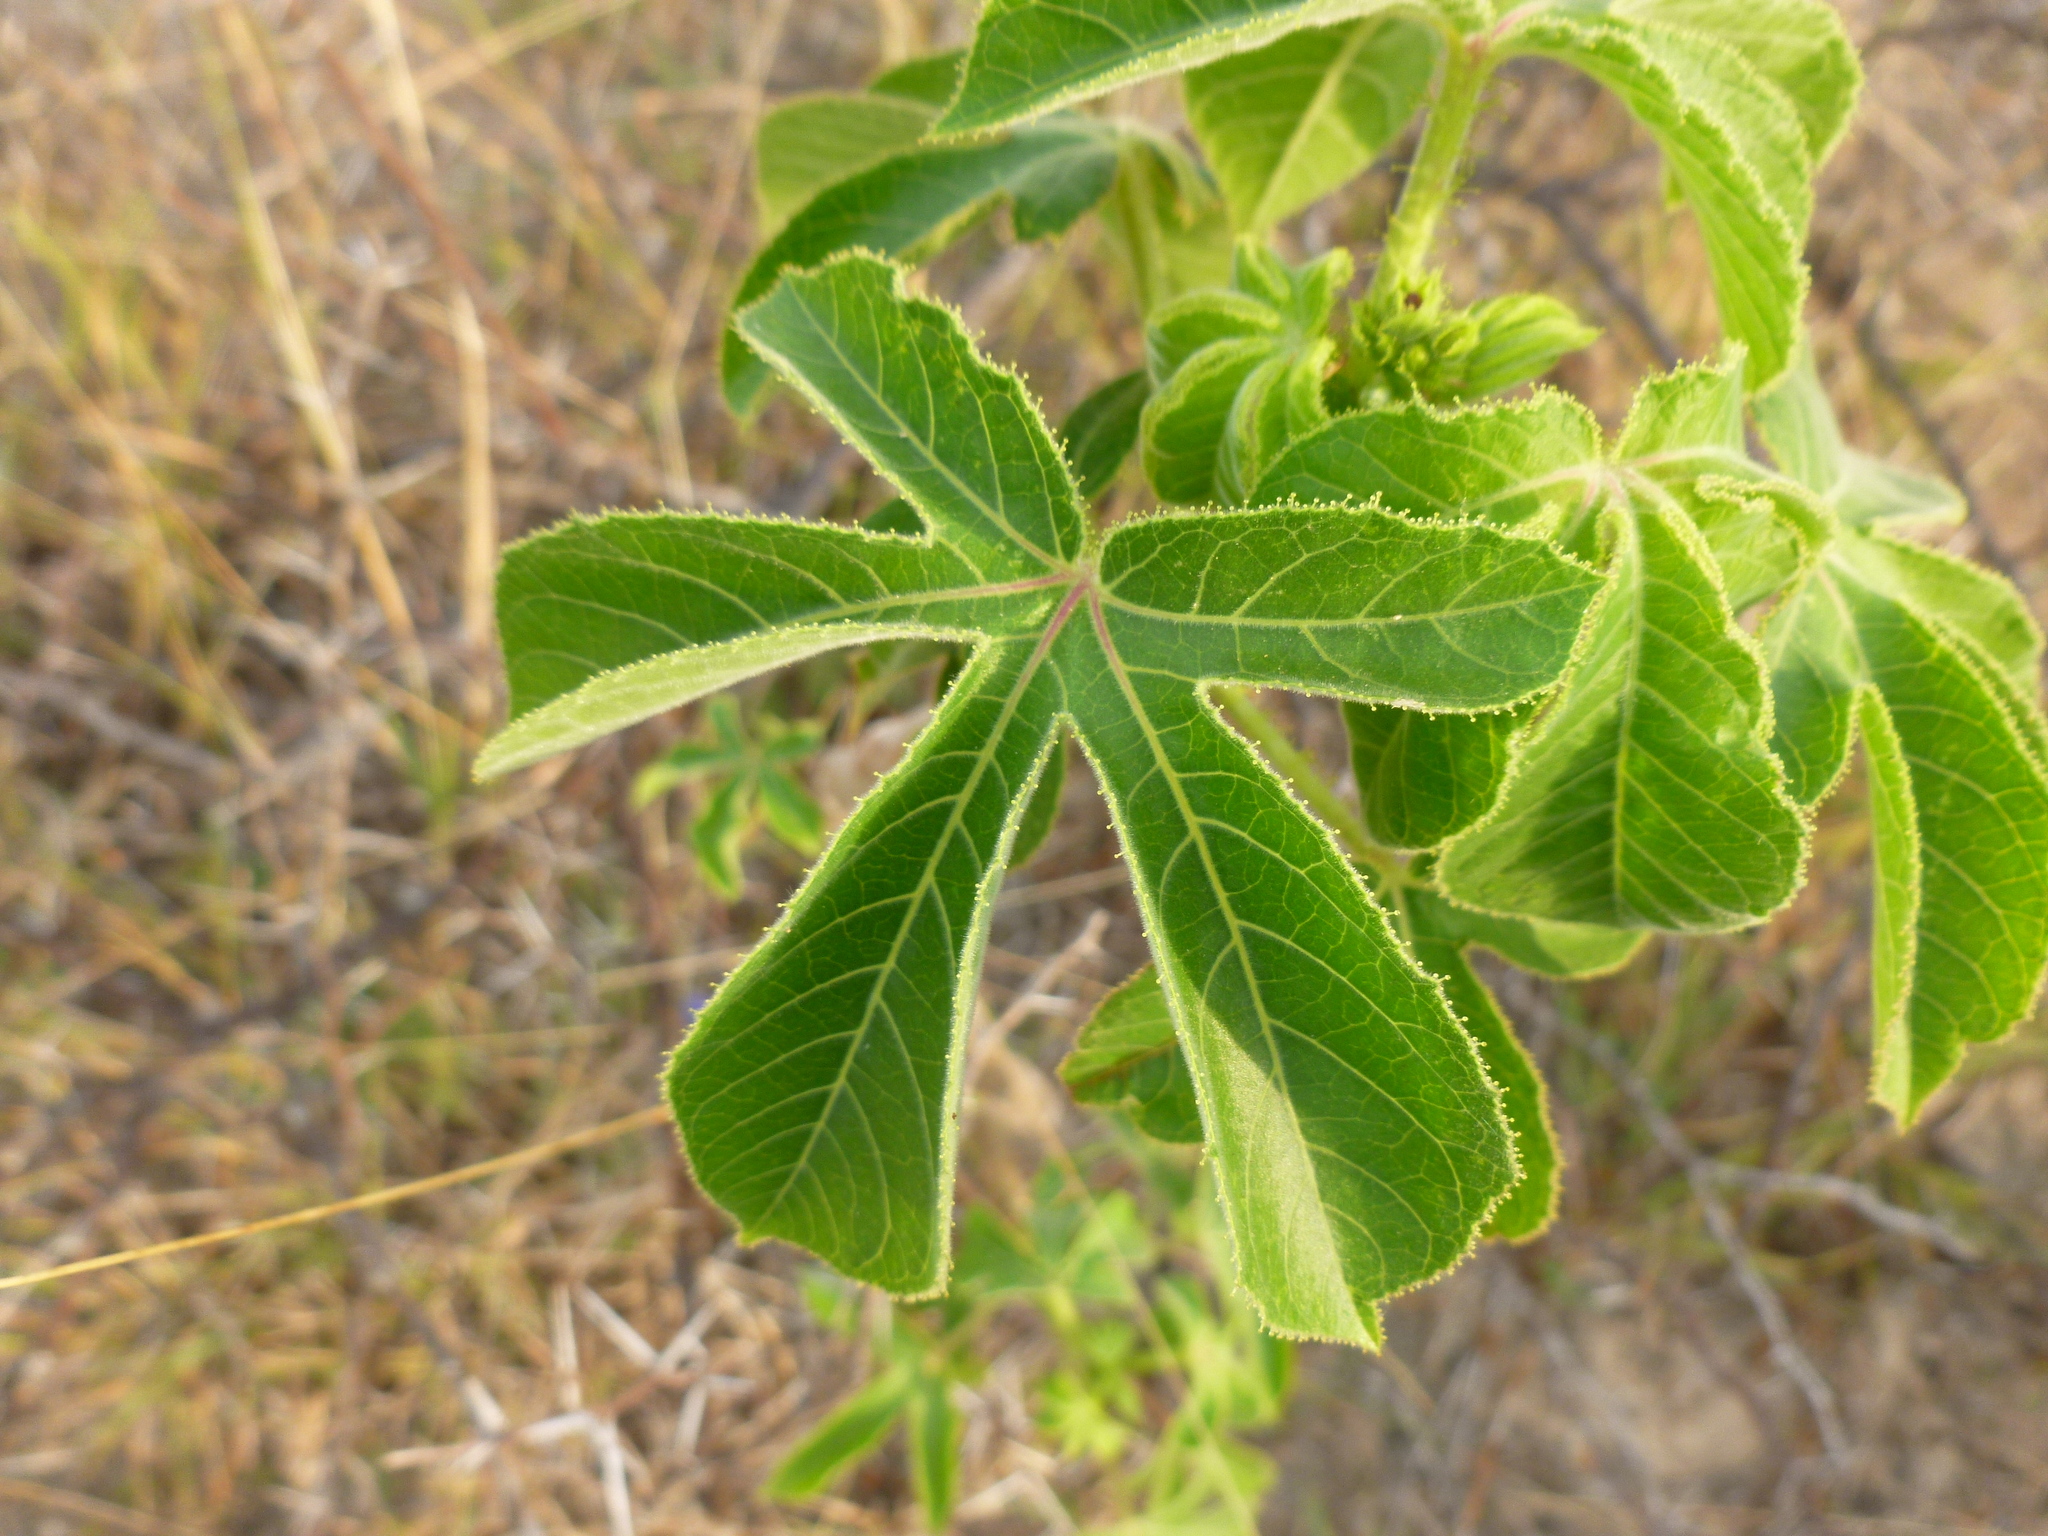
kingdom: Plantae
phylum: Tracheophyta
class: Magnoliopsida
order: Malpighiales
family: Euphorbiaceae
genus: Jatropha
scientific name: Jatropha gossypiifolia
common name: Bellyache bush
